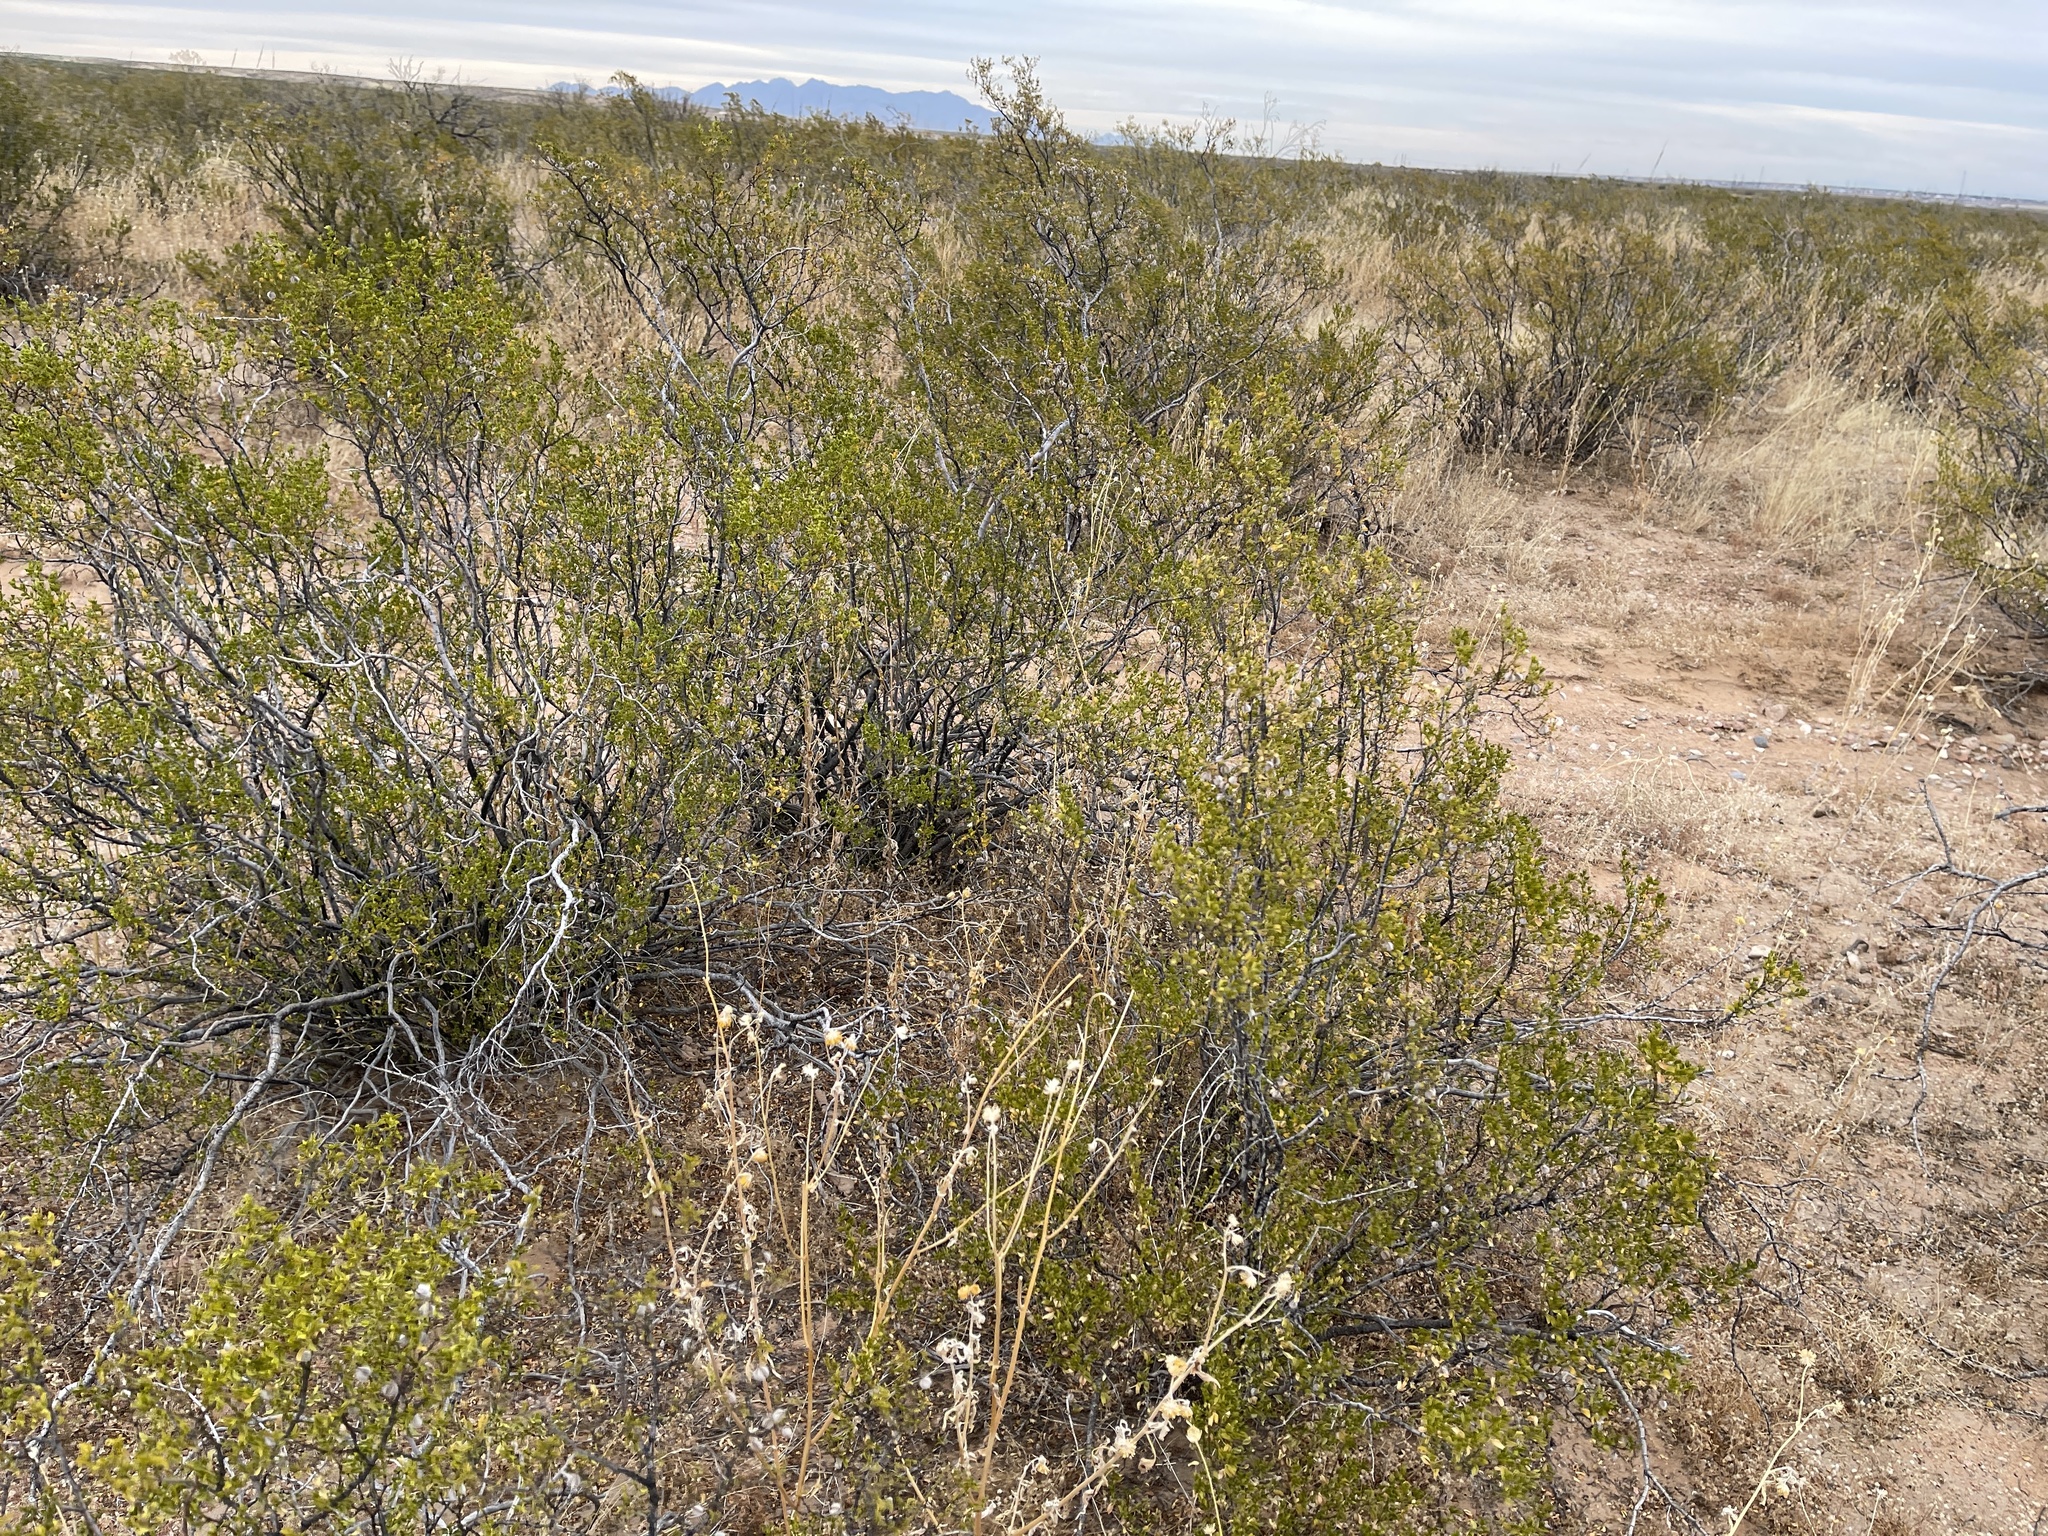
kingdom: Plantae
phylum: Tracheophyta
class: Magnoliopsida
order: Zygophyllales
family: Zygophyllaceae
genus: Larrea
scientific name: Larrea tridentata
